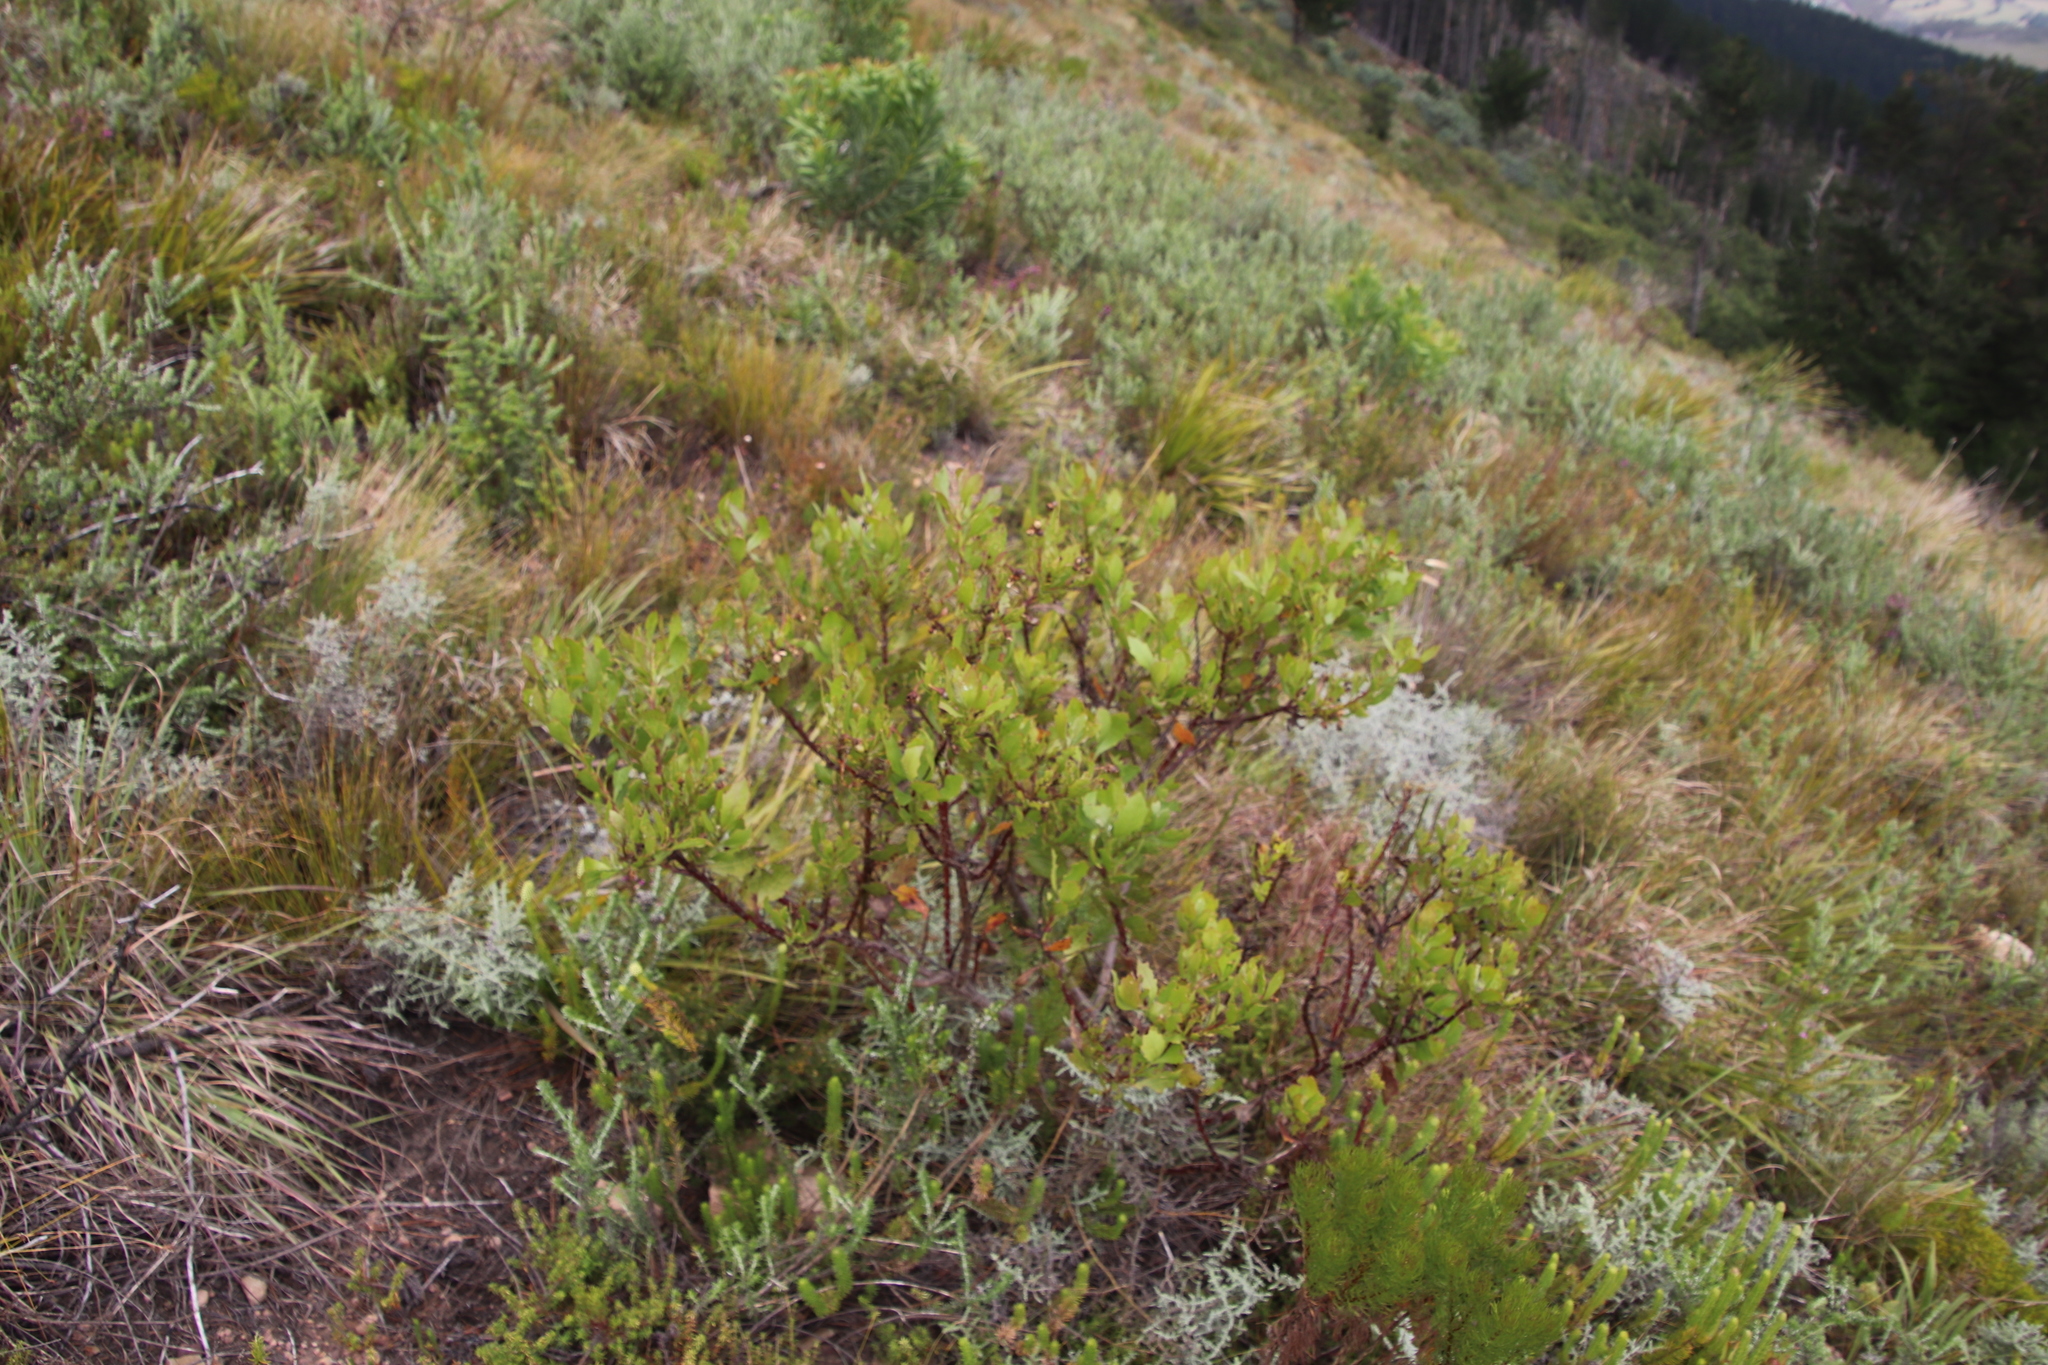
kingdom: Plantae
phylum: Tracheophyta
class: Magnoliopsida
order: Asterales
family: Asteraceae
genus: Osteospermum
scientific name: Osteospermum moniliferum
